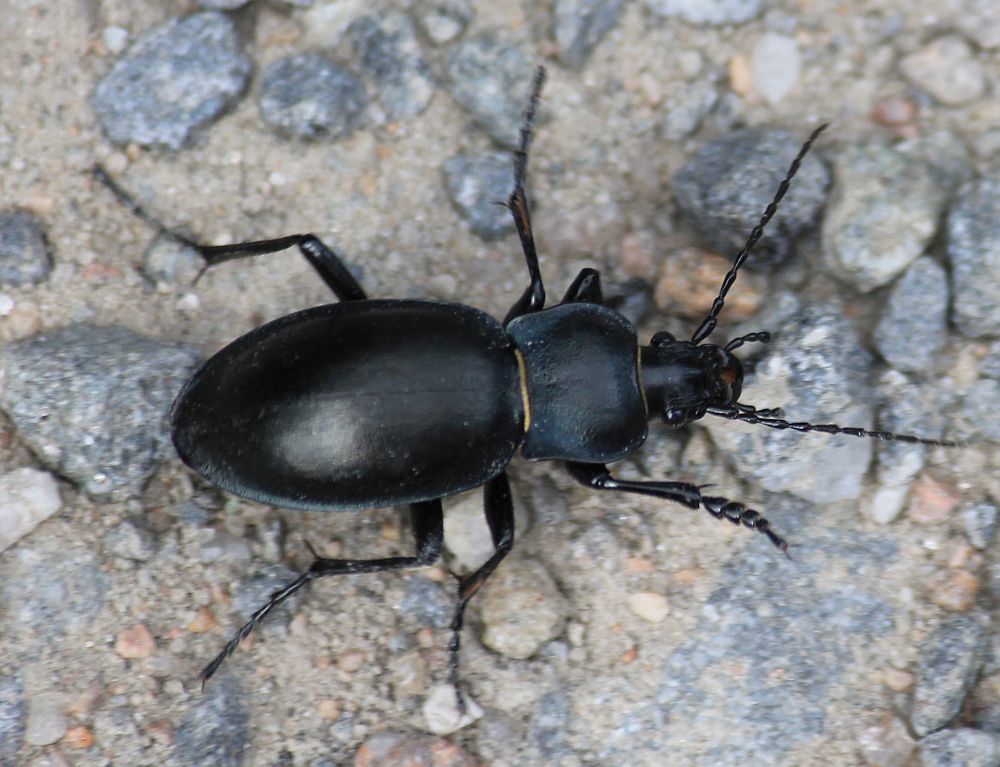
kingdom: Animalia
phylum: Arthropoda
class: Insecta
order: Coleoptera
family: Carabidae
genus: Carabus
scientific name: Carabus glabratus
